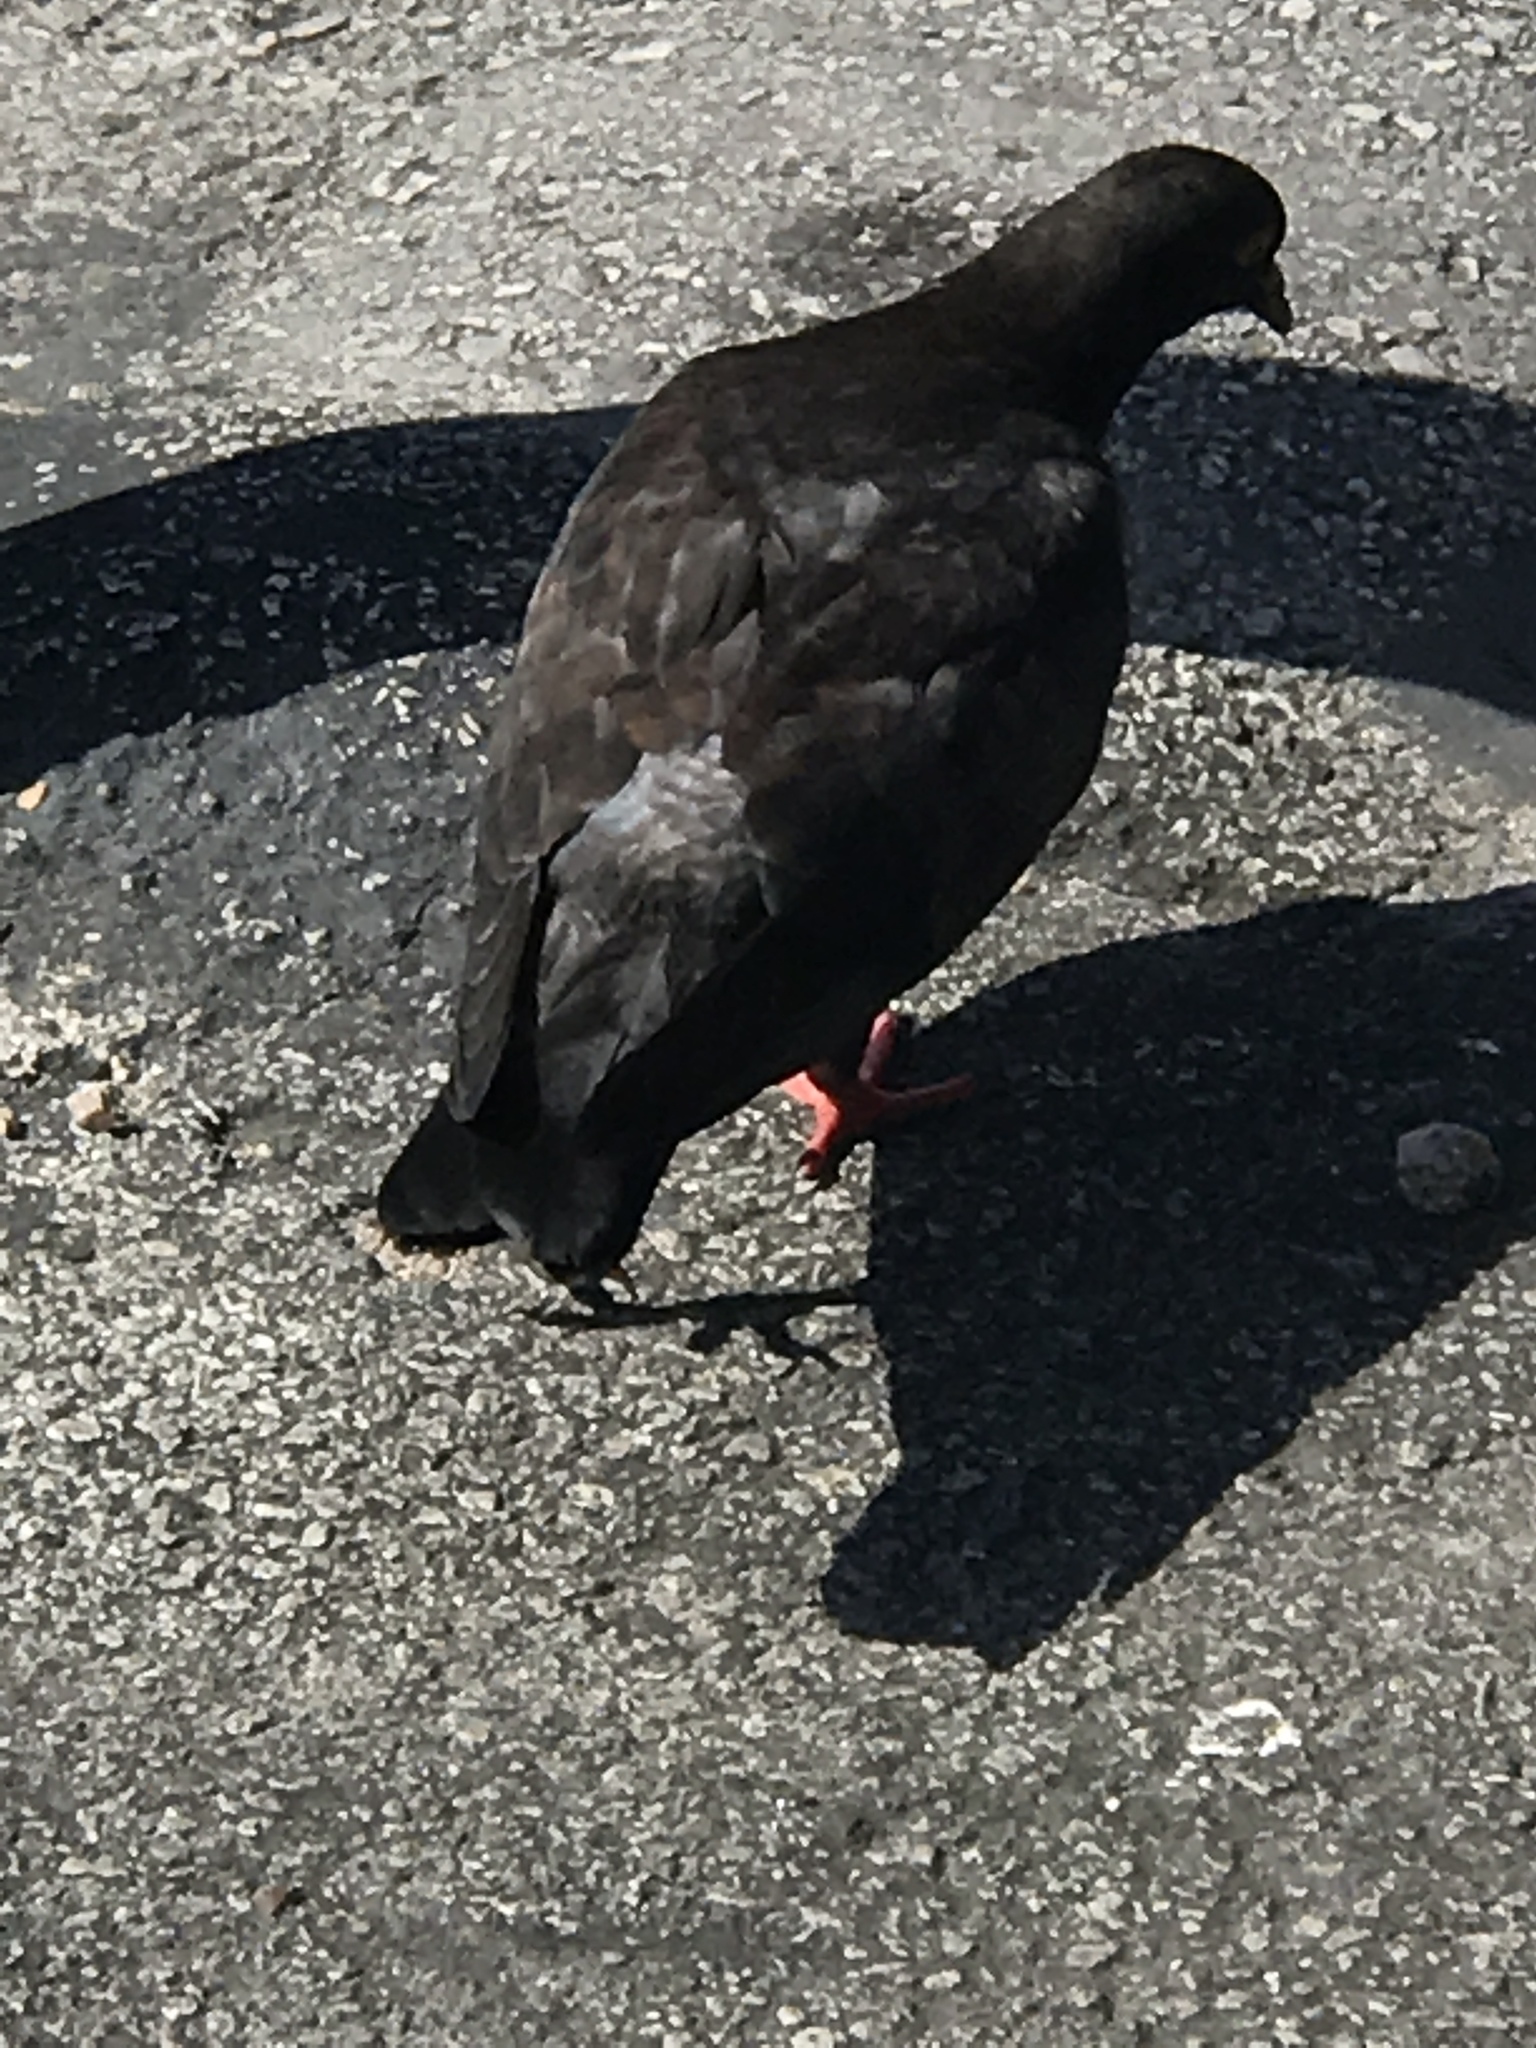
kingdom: Animalia
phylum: Chordata
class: Aves
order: Columbiformes
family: Columbidae
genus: Columba
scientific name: Columba livia
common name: Rock pigeon
